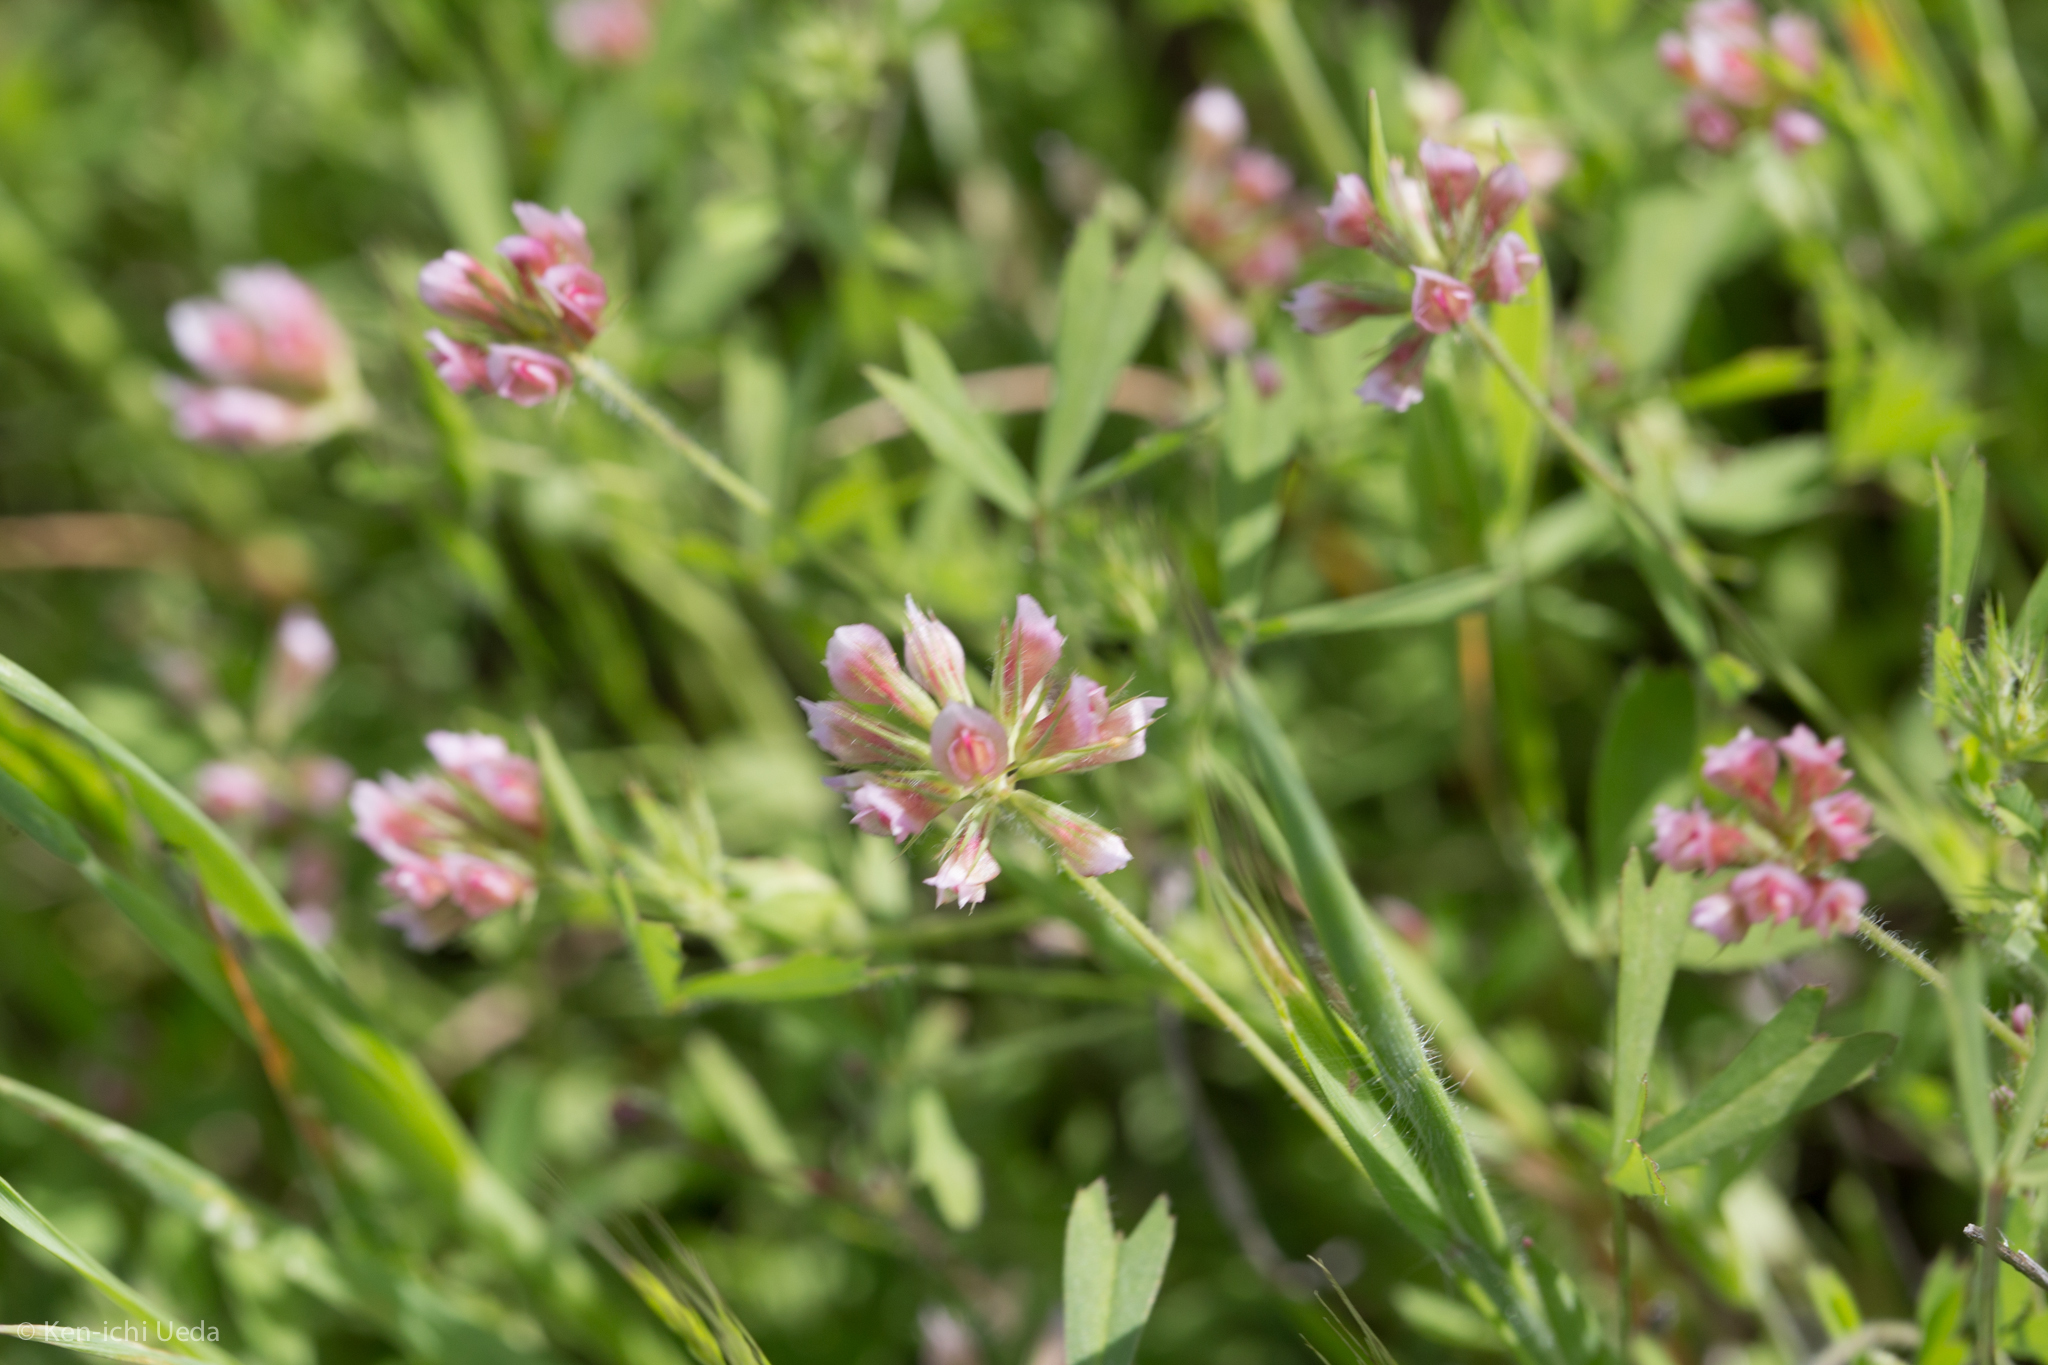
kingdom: Plantae
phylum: Tracheophyta
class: Magnoliopsida
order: Fabales
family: Fabaceae
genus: Trifolium
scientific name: Trifolium bifidum
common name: Notch-leaf clover
